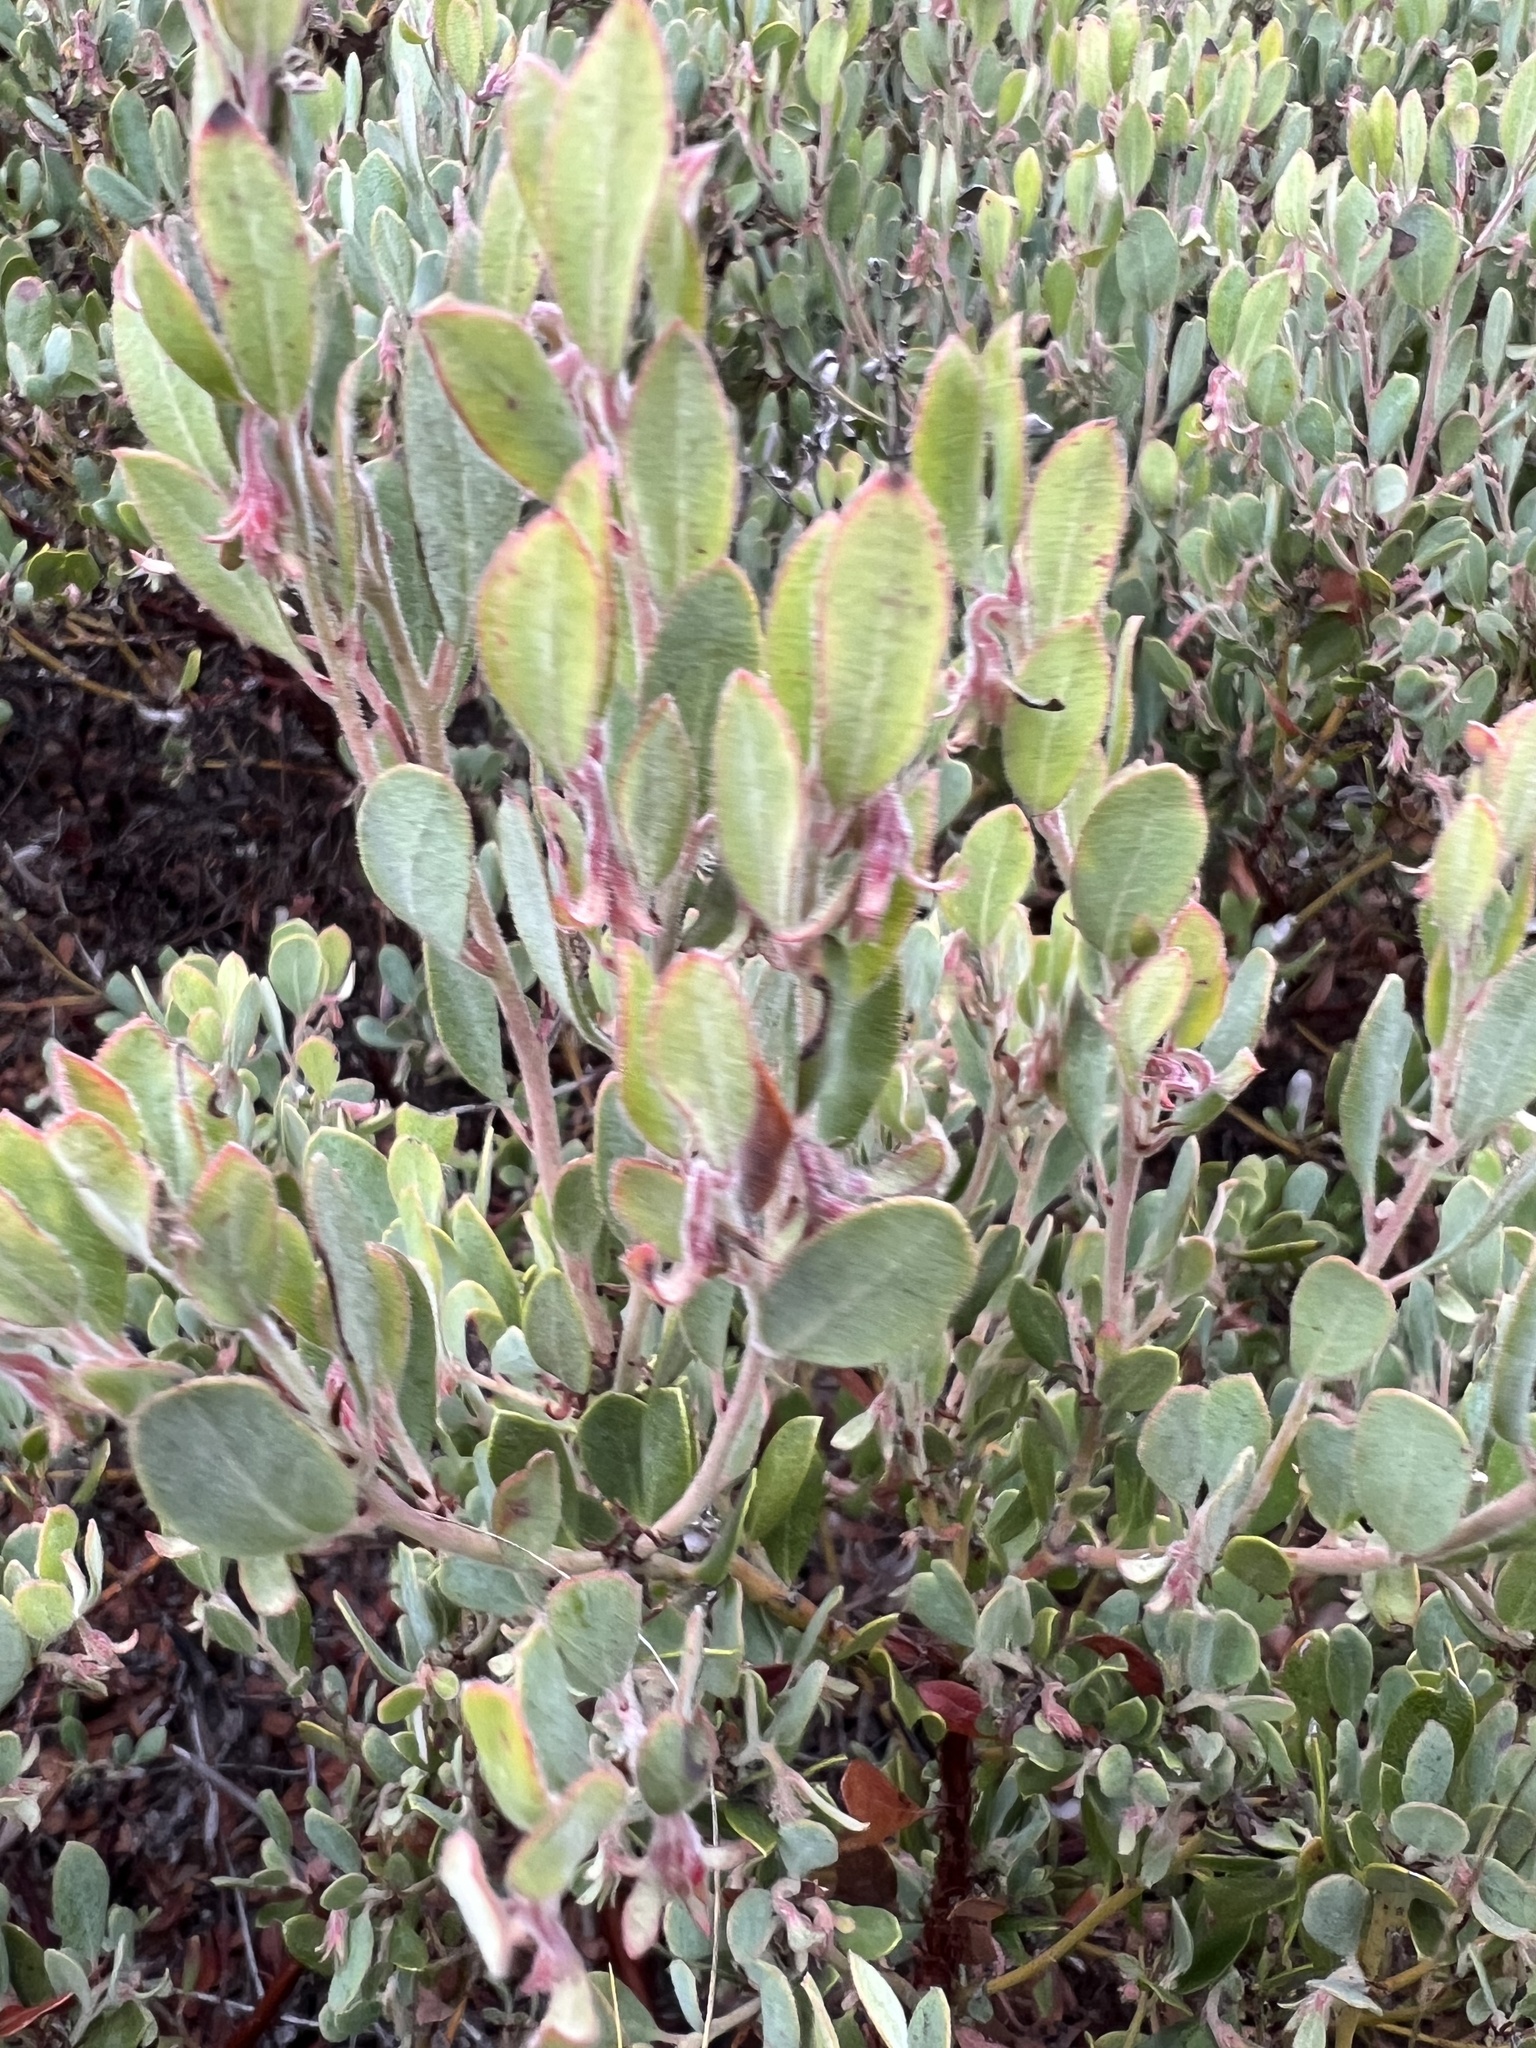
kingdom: Plantae
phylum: Tracheophyta
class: Magnoliopsida
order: Ericales
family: Ericaceae
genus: Arctostaphylos
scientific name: Arctostaphylos pumila
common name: Sandmat manzanita
